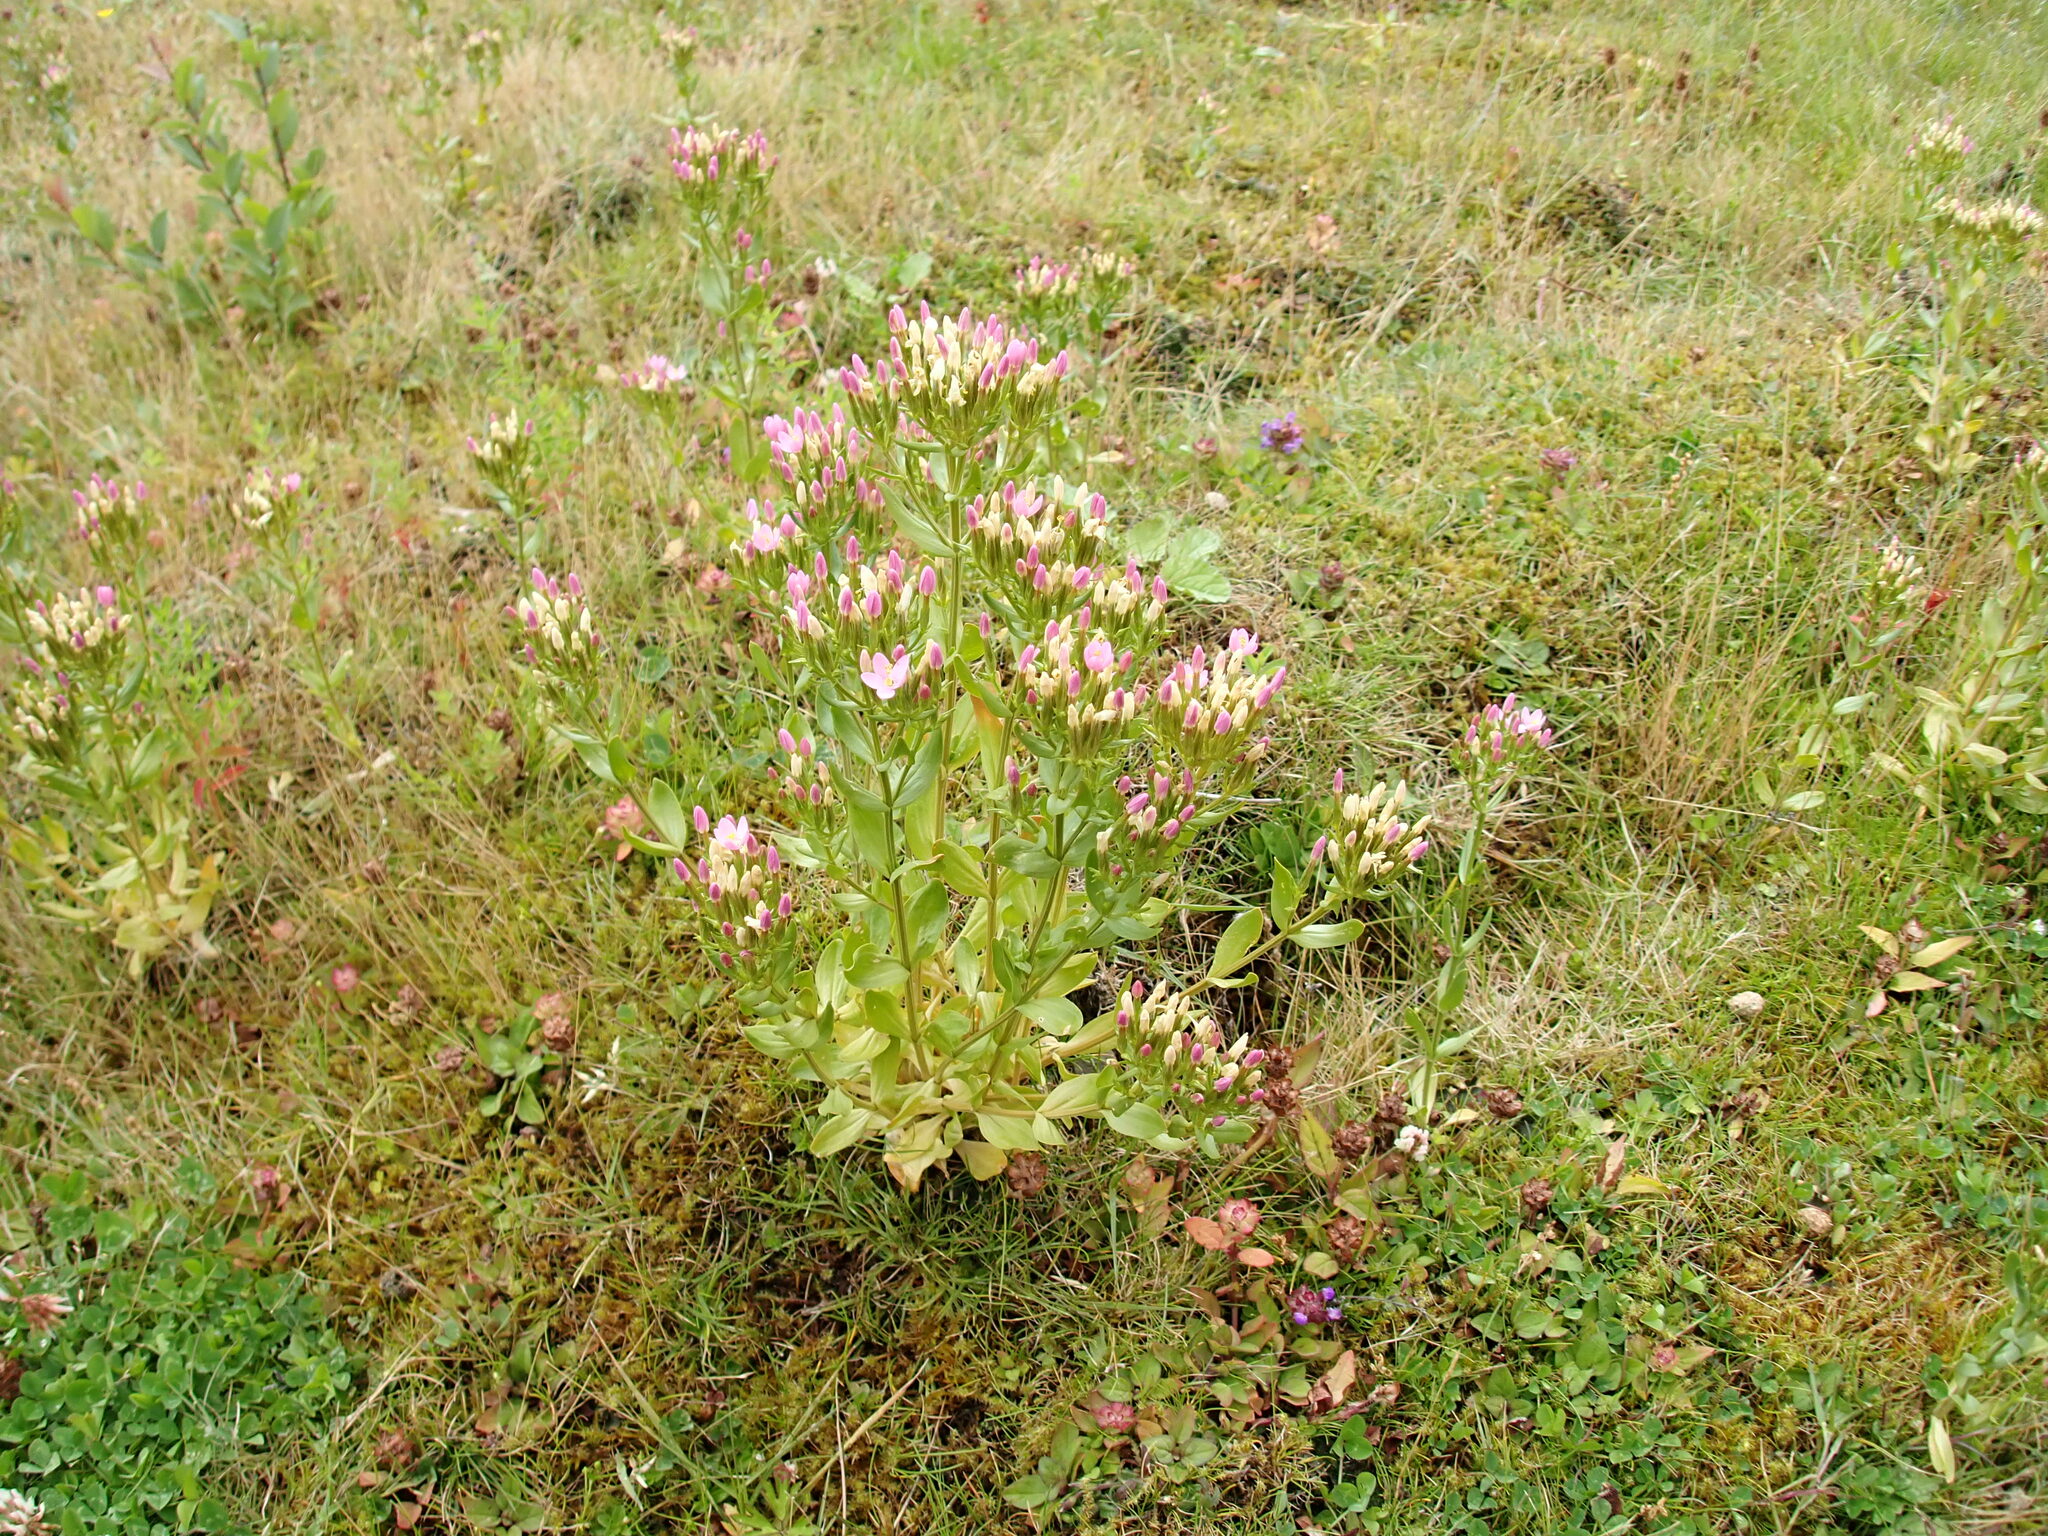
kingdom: Plantae
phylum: Tracheophyta
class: Magnoliopsida
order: Gentianales
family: Gentianaceae
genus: Centaurium
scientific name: Centaurium erythraea
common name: Common centaury
